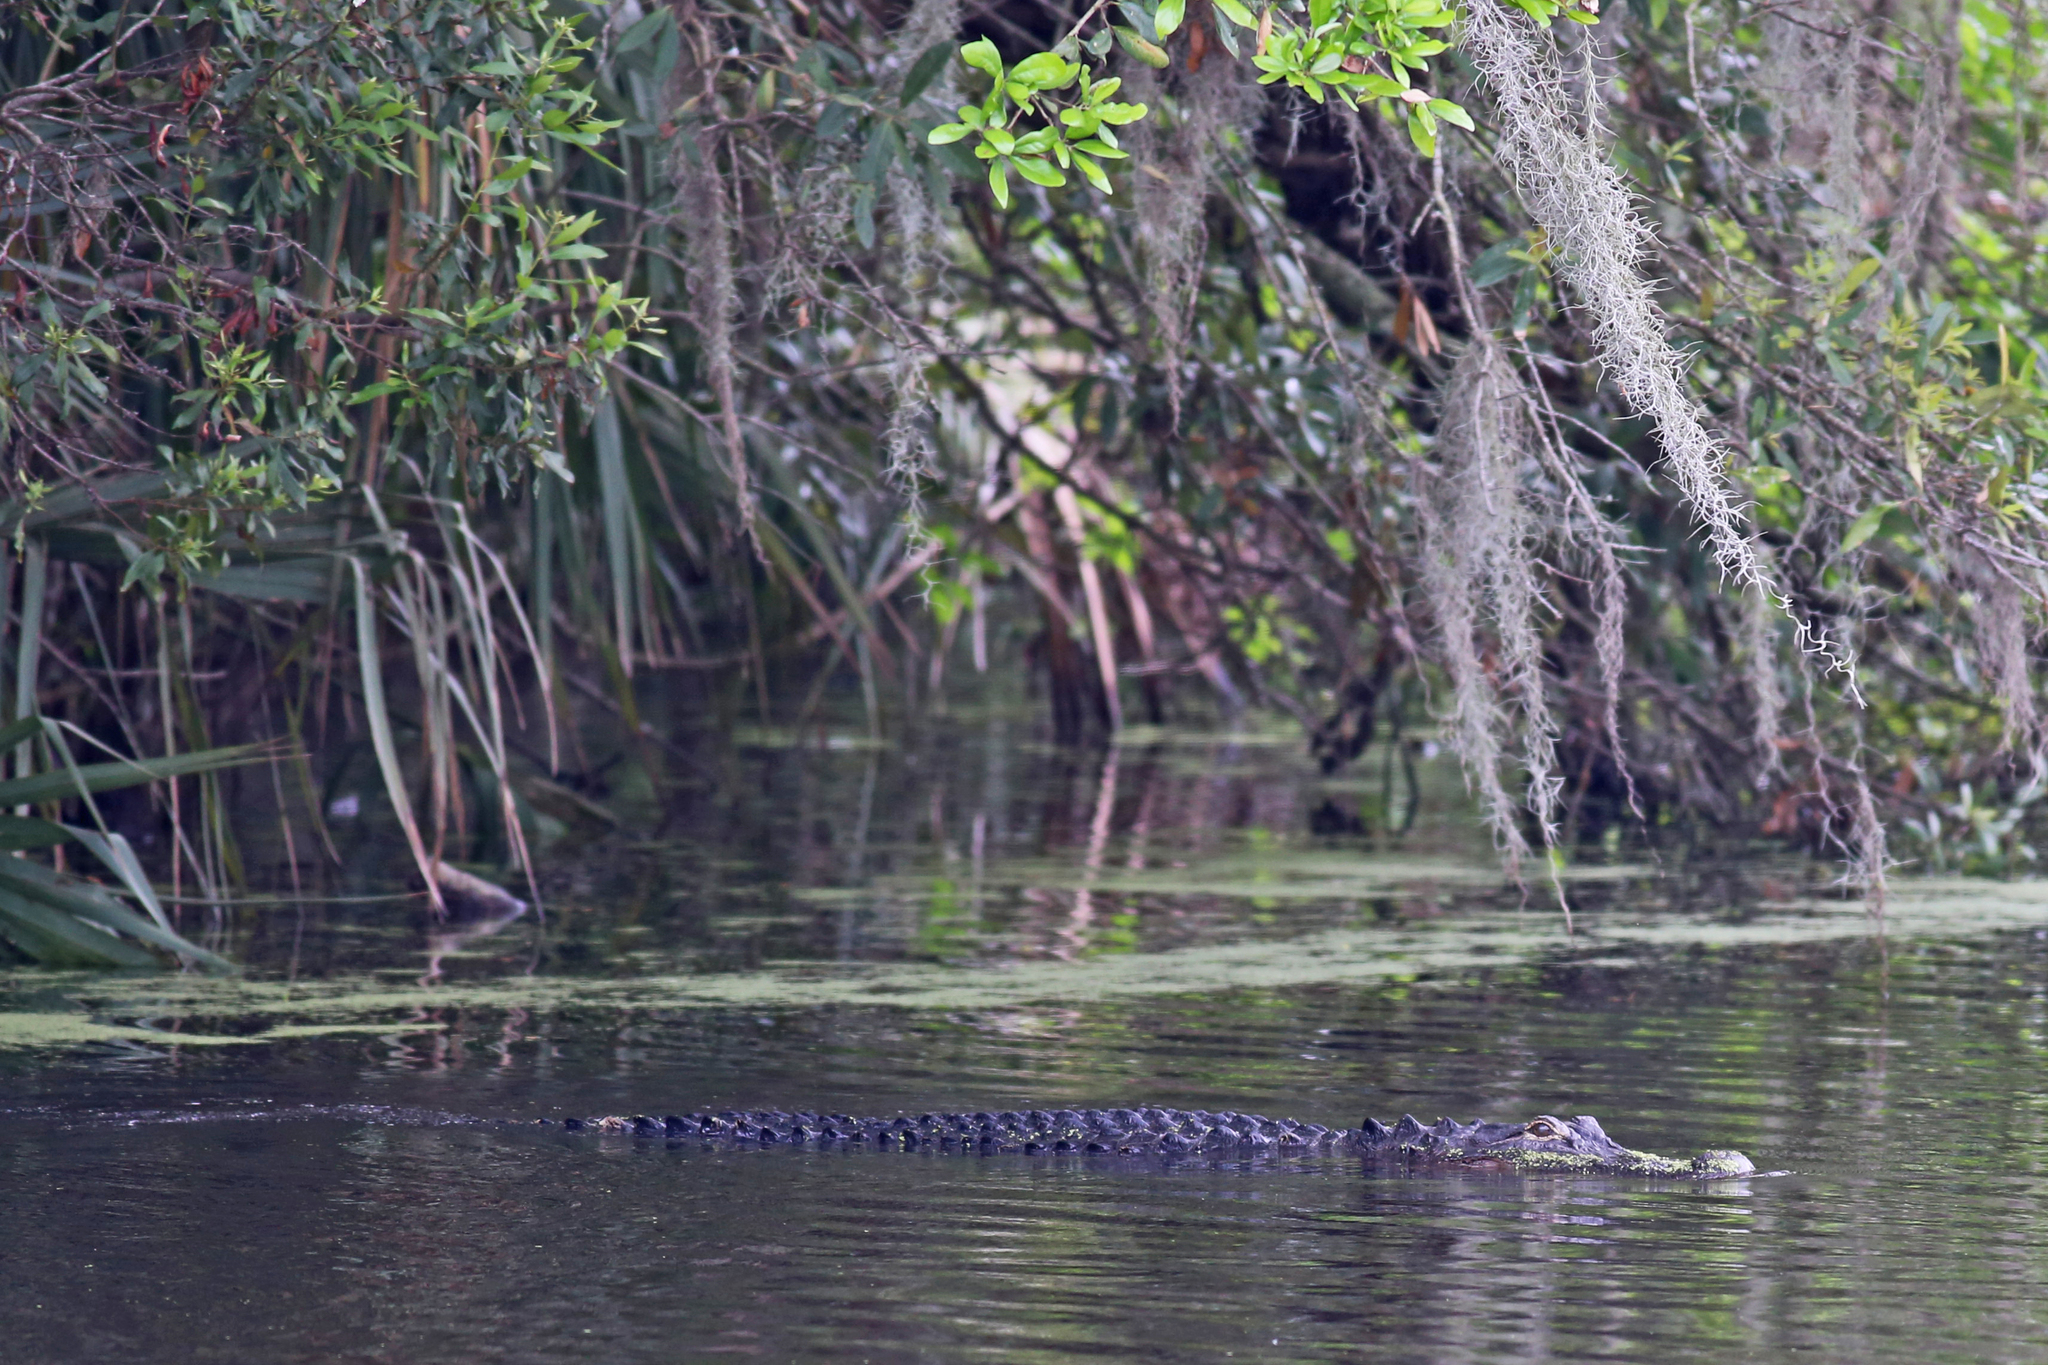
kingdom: Animalia
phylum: Chordata
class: Crocodylia
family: Alligatoridae
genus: Alligator
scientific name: Alligator mississippiensis
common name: American alligator
